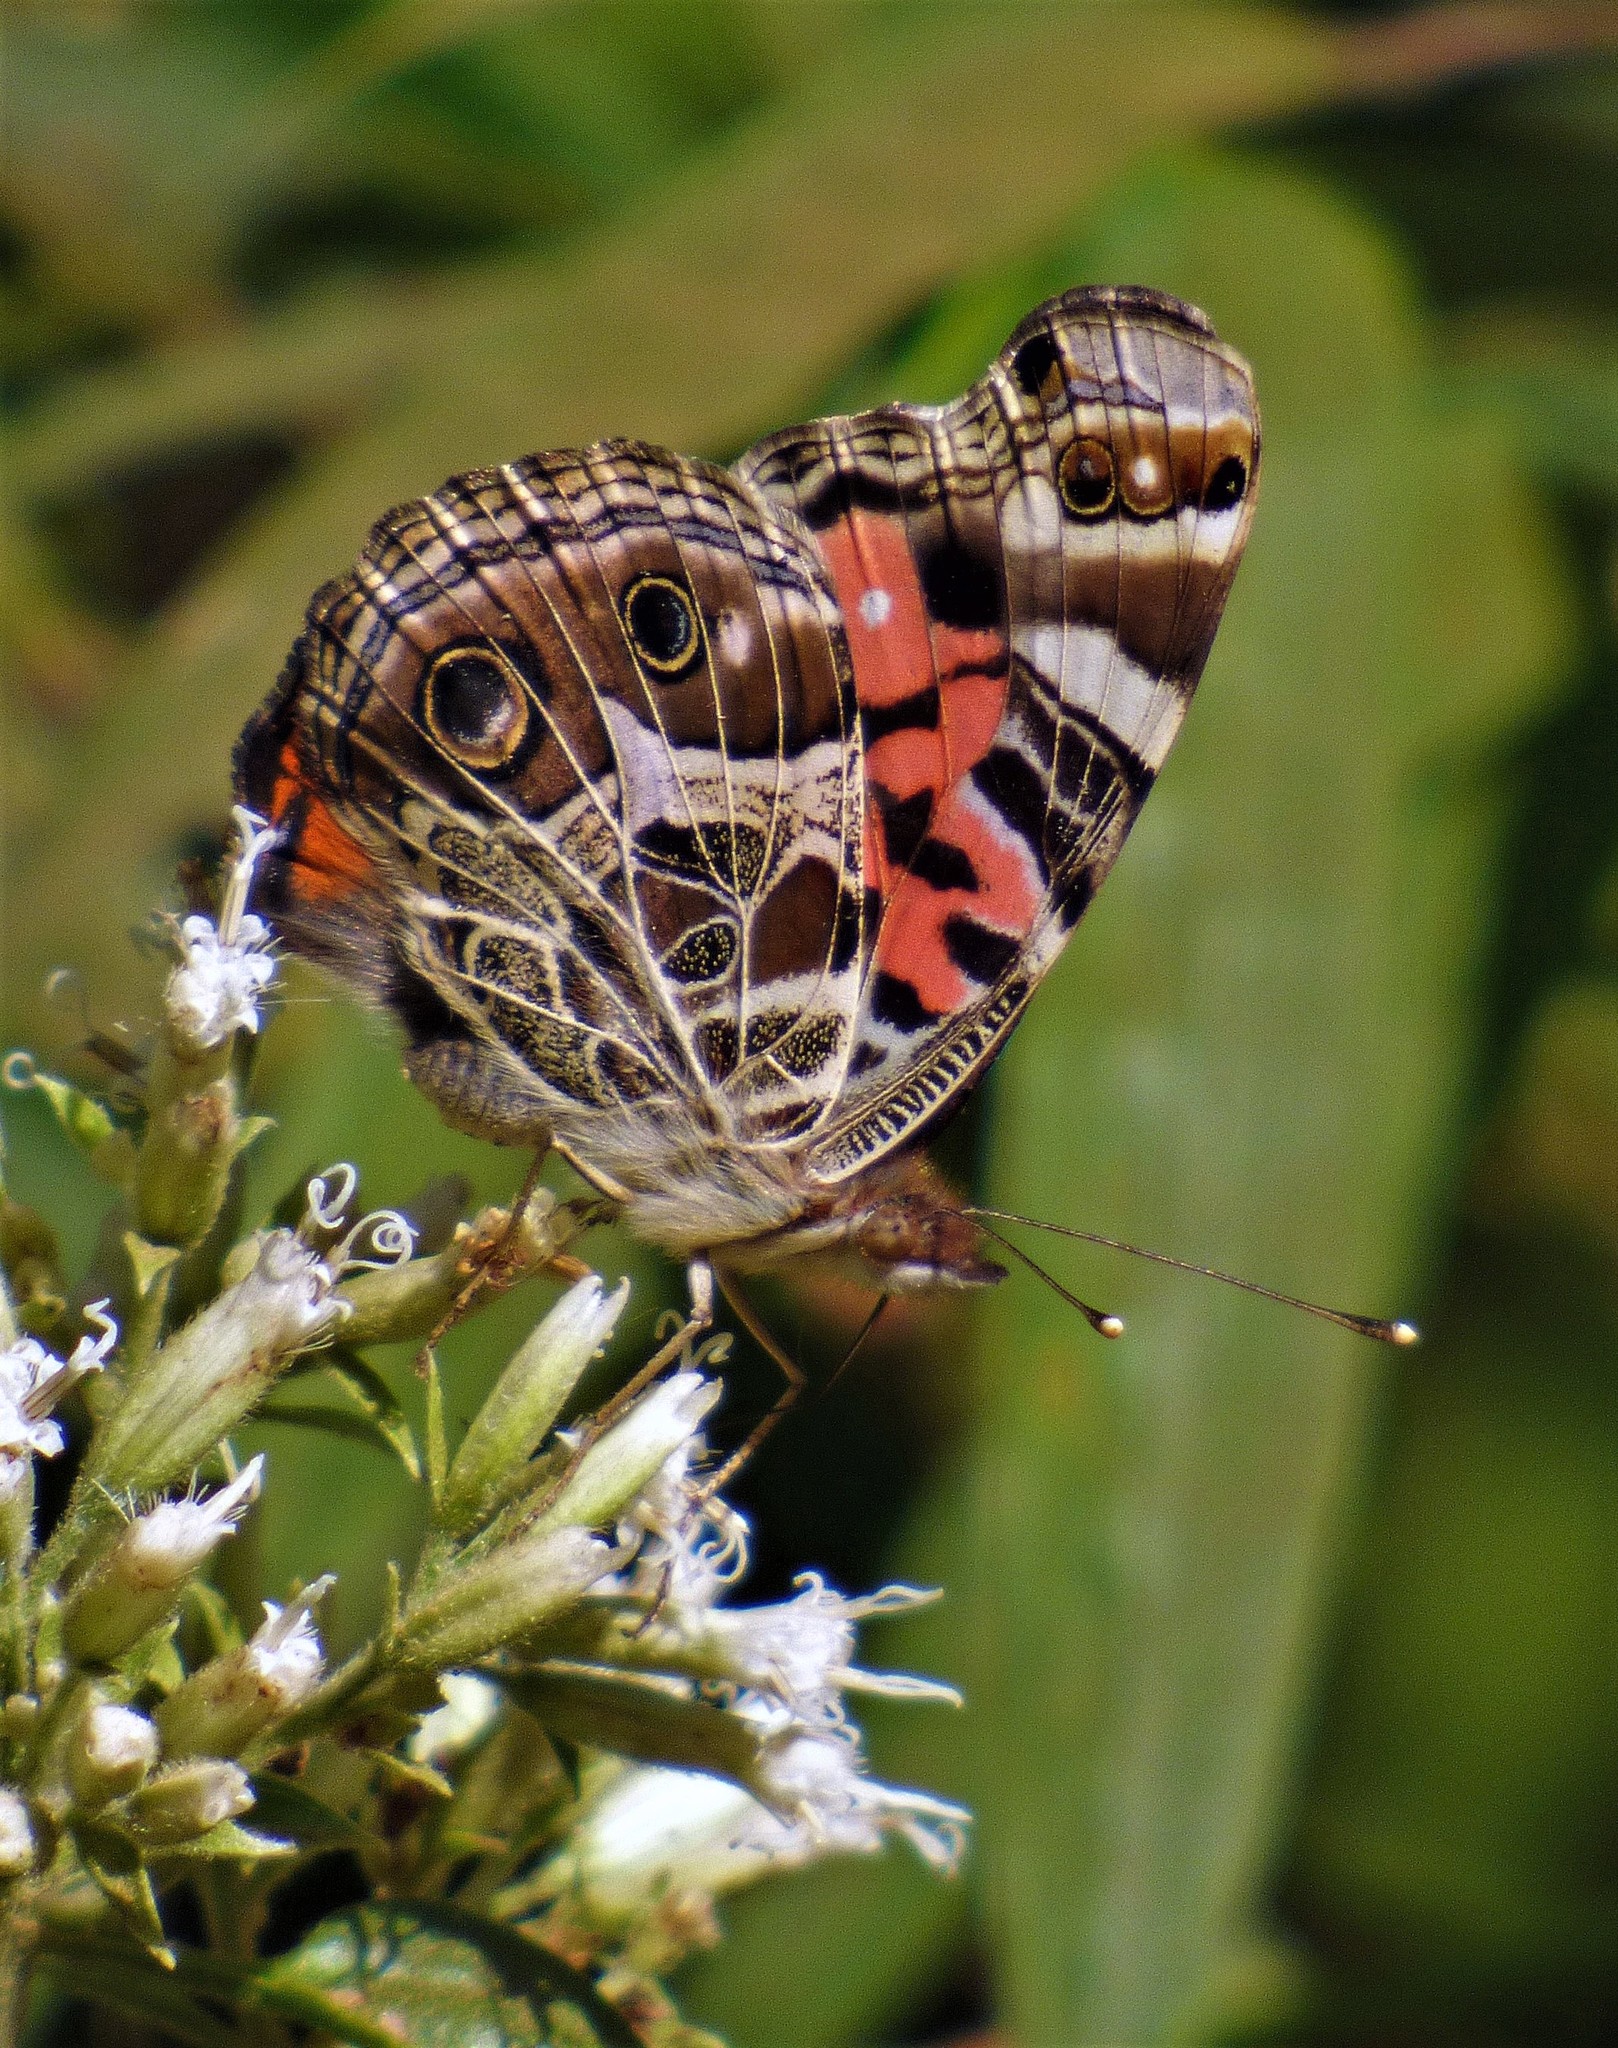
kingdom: Animalia
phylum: Arthropoda
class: Insecta
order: Lepidoptera
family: Nymphalidae
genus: Vanessa
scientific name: Vanessa braziliensis
